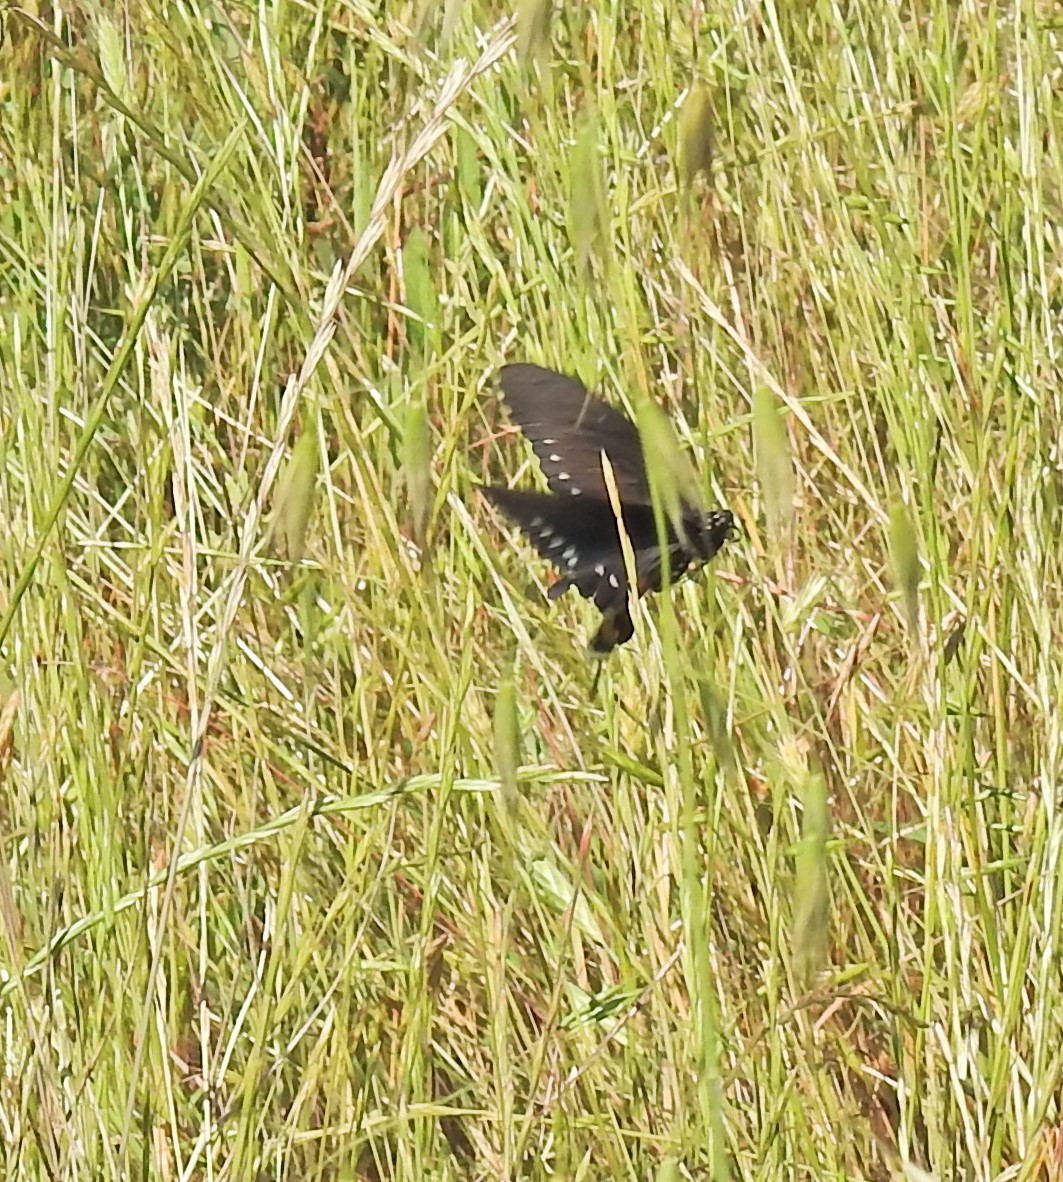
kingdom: Animalia
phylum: Arthropoda
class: Insecta
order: Lepidoptera
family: Papilionidae
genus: Battus
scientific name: Battus philenor
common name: Pipevine swallowtail
